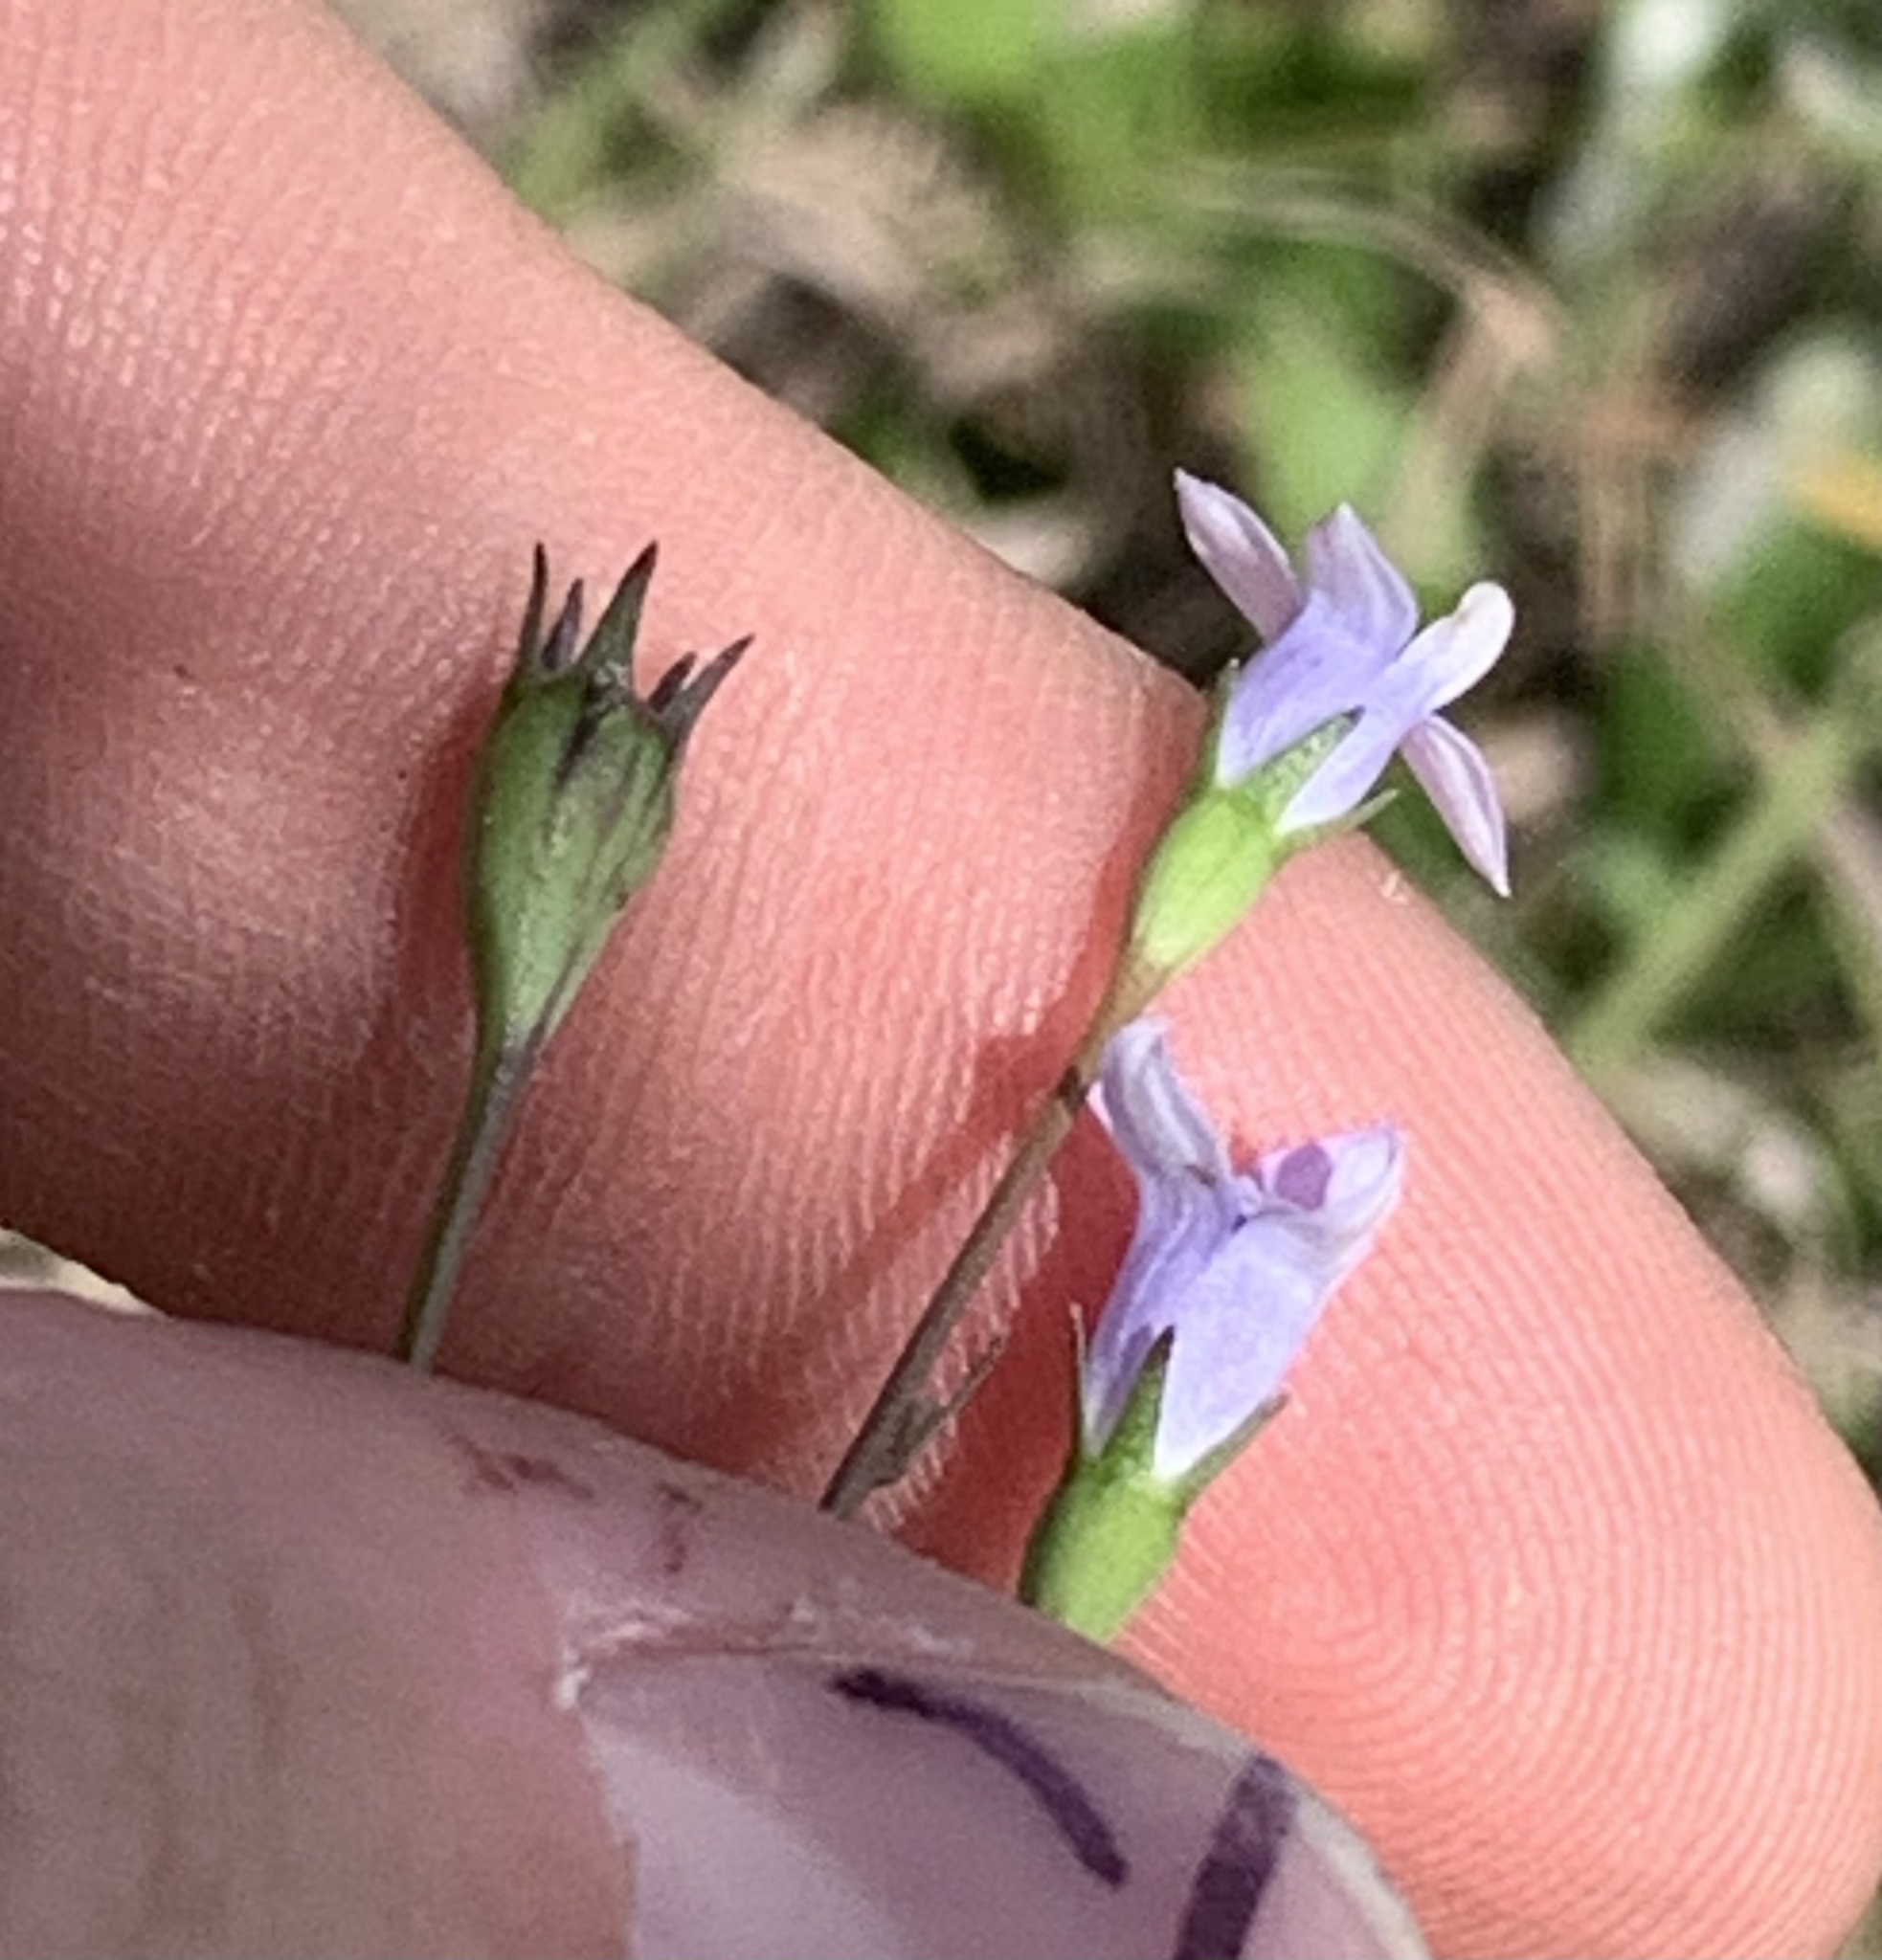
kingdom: Plantae
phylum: Tracheophyta
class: Magnoliopsida
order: Asterales
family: Campanulaceae
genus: Wahlenbergia
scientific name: Wahlenbergia marginata
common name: Southern rockbell
